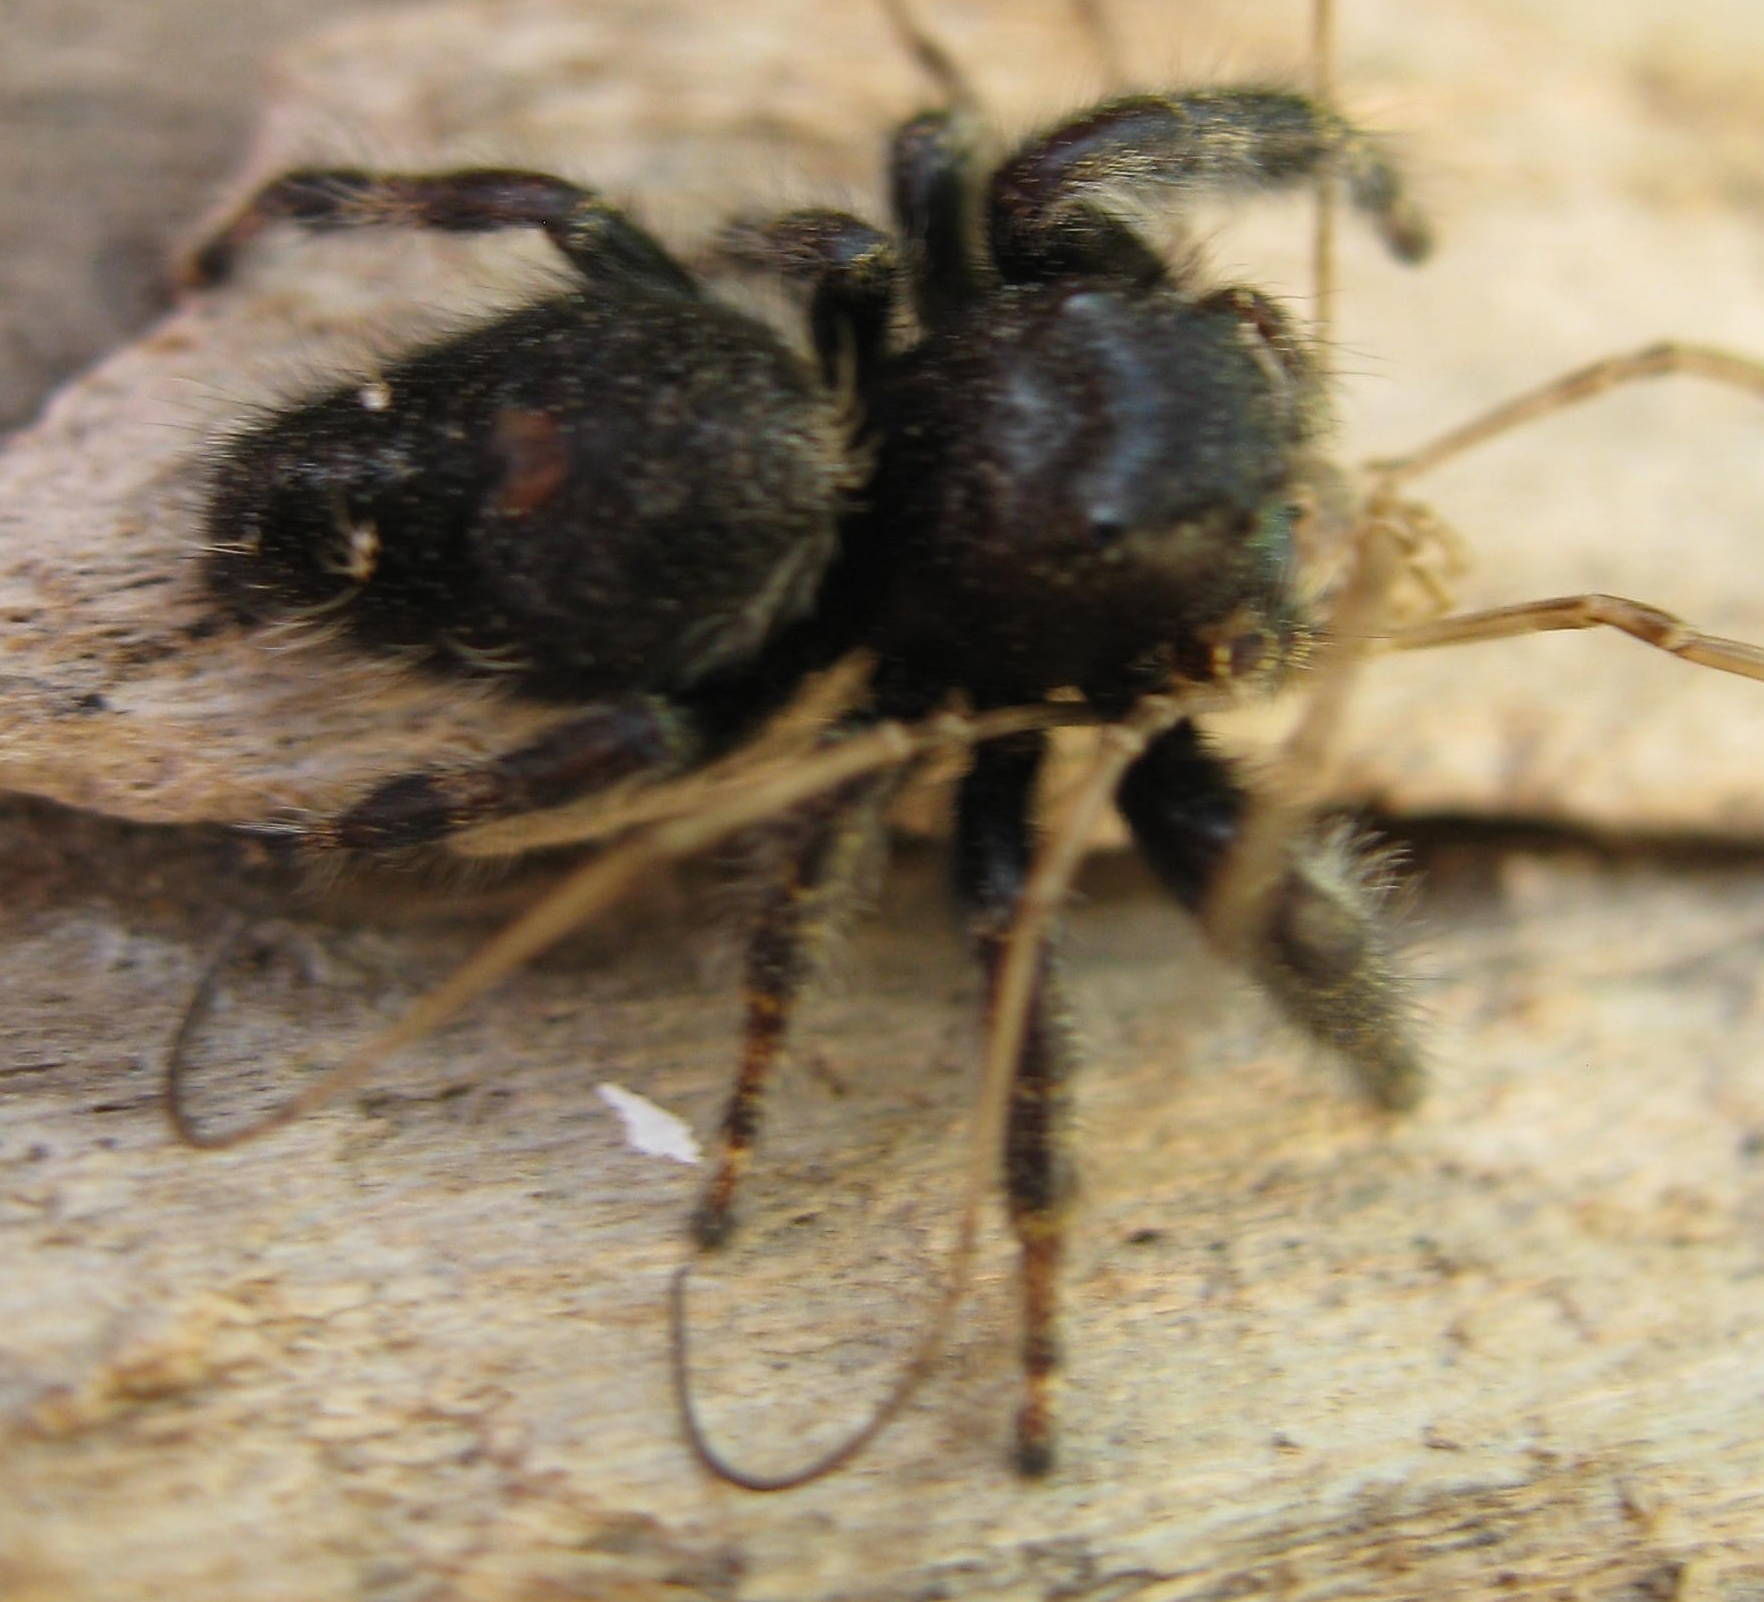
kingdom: Animalia
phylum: Arthropoda
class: Arachnida
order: Araneae
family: Salticidae
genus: Phidippus
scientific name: Phidippus audax
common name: Bold jumper
